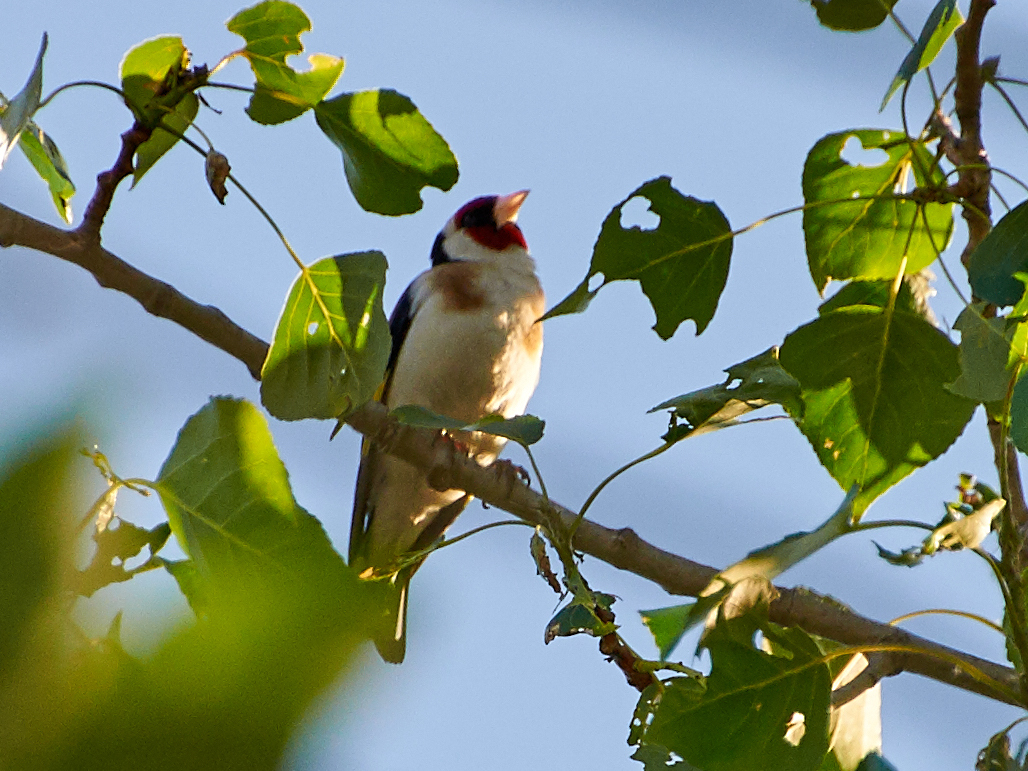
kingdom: Animalia
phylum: Chordata
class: Aves
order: Passeriformes
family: Fringillidae
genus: Carduelis
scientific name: Carduelis carduelis
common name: European goldfinch
